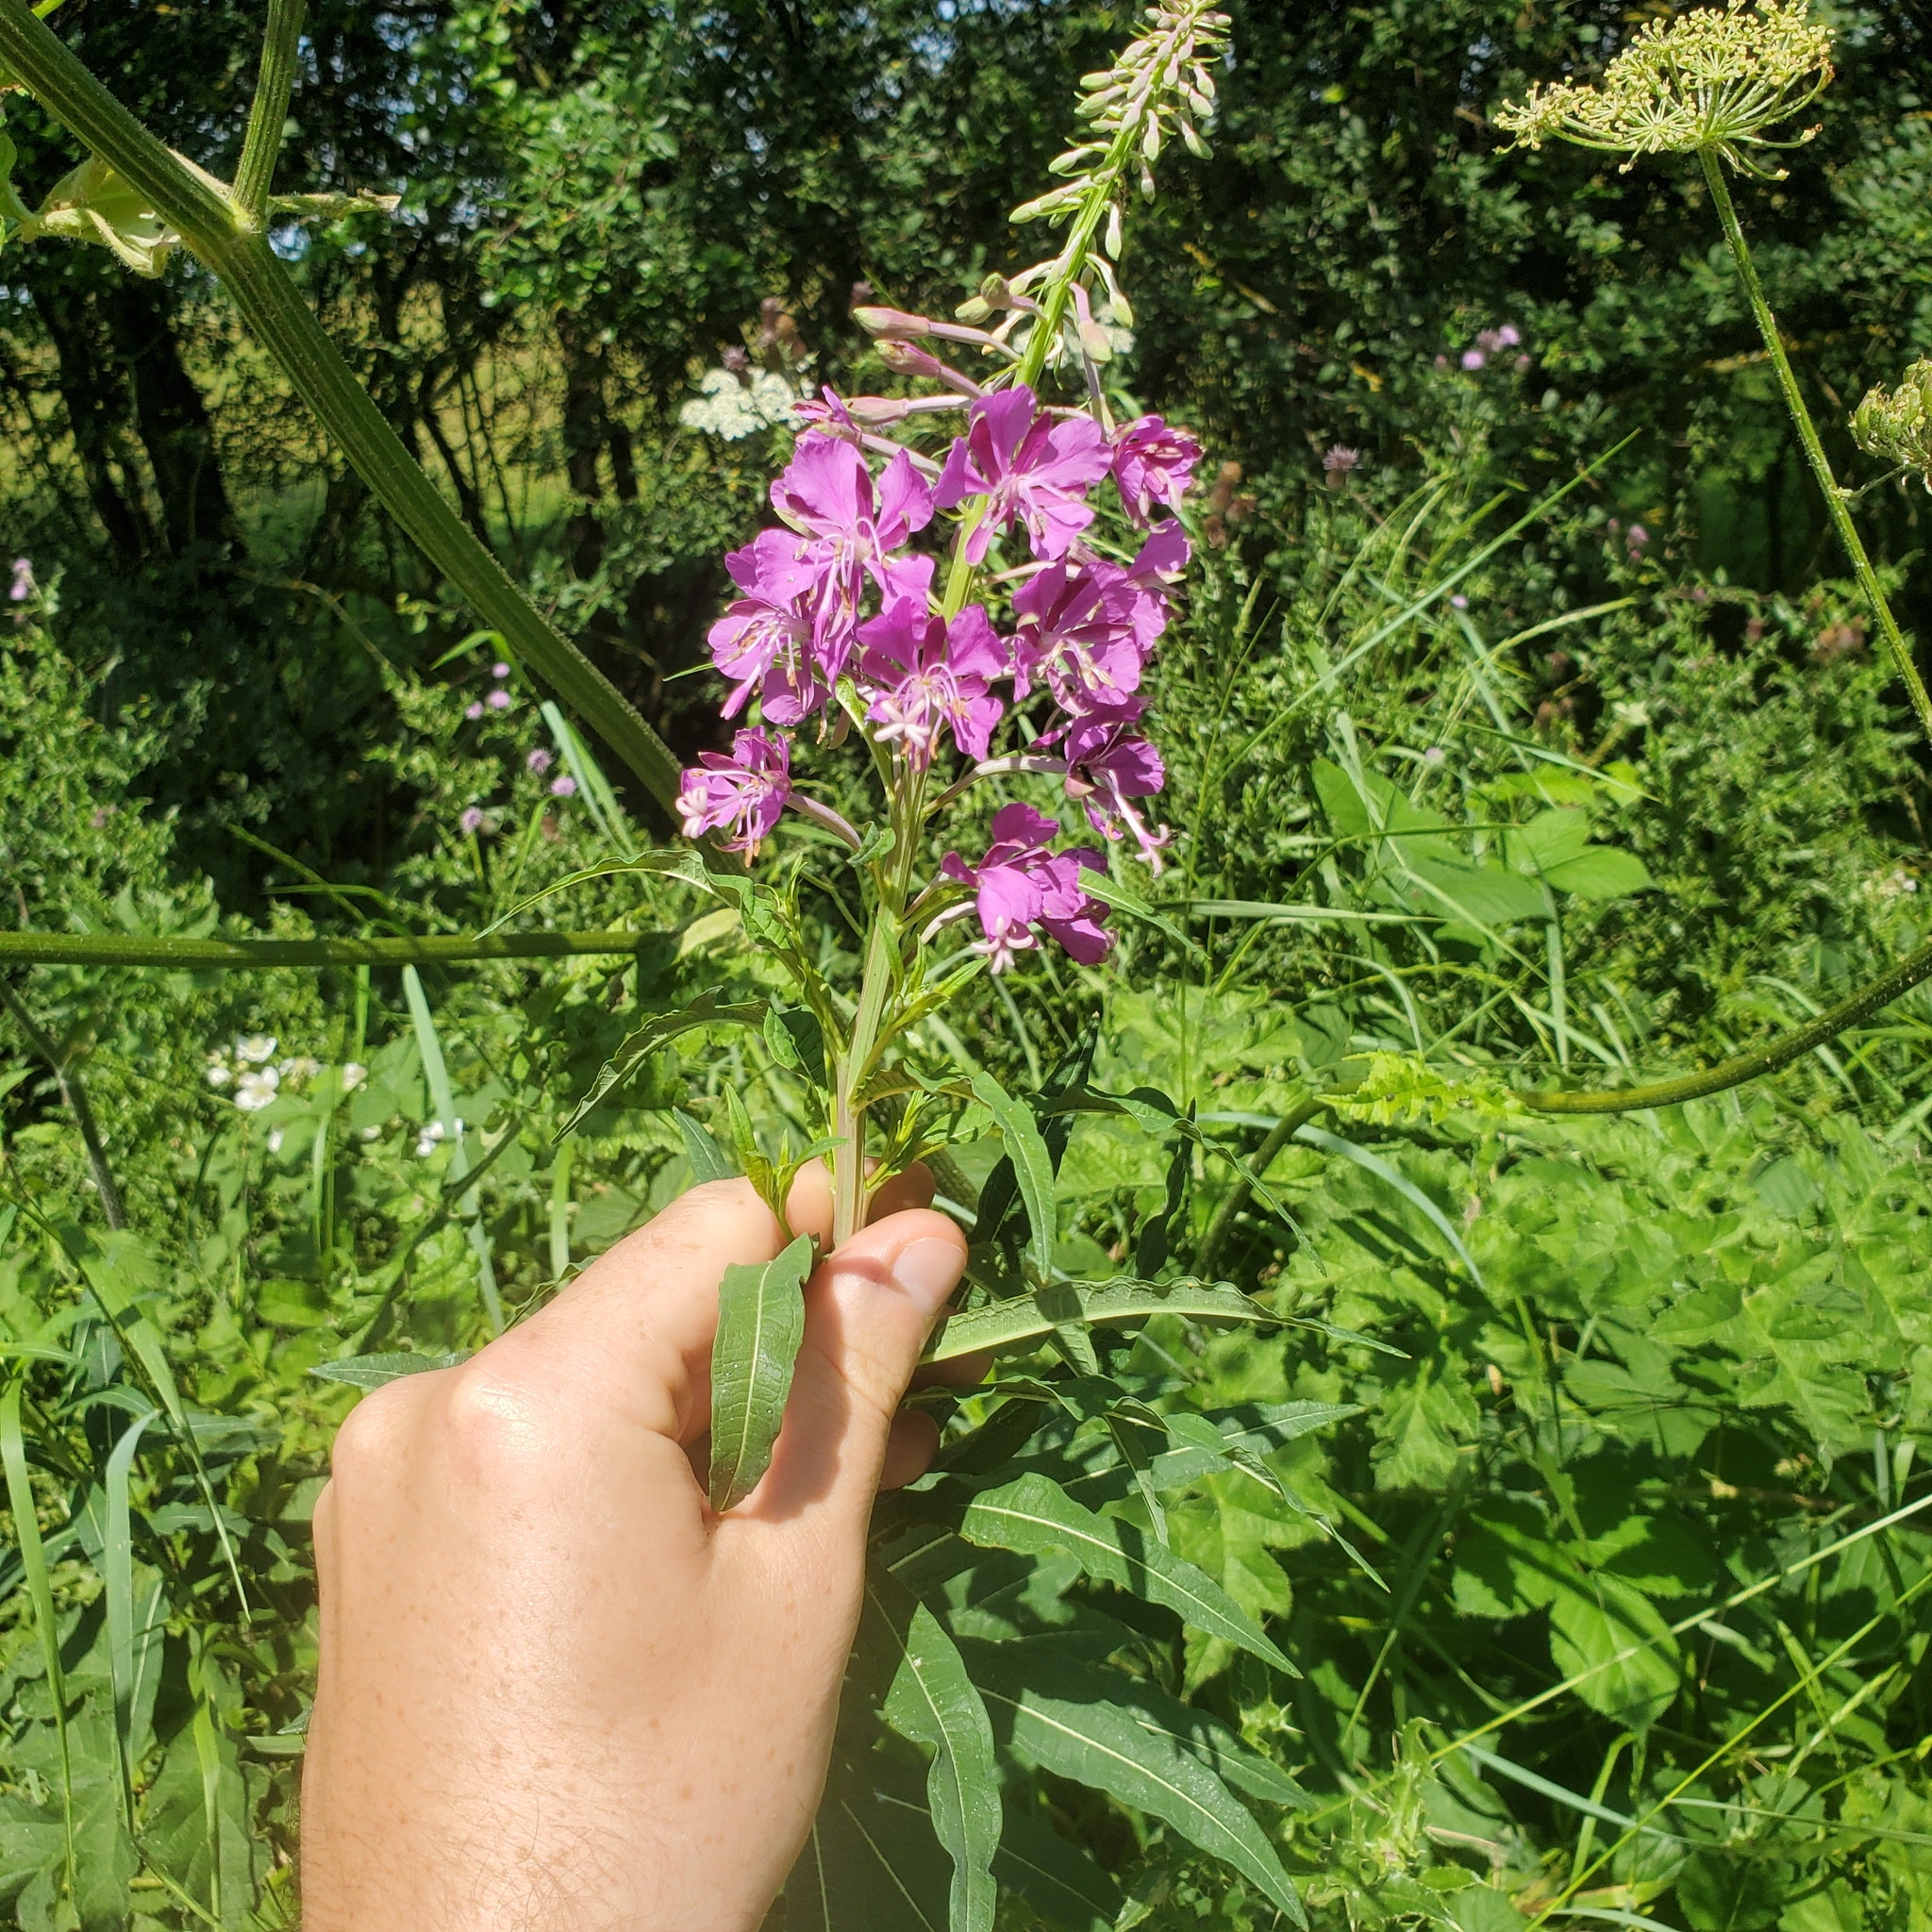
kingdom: Plantae
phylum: Tracheophyta
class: Magnoliopsida
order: Myrtales
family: Onagraceae
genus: Chamaenerion
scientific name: Chamaenerion angustifolium
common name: Fireweed
